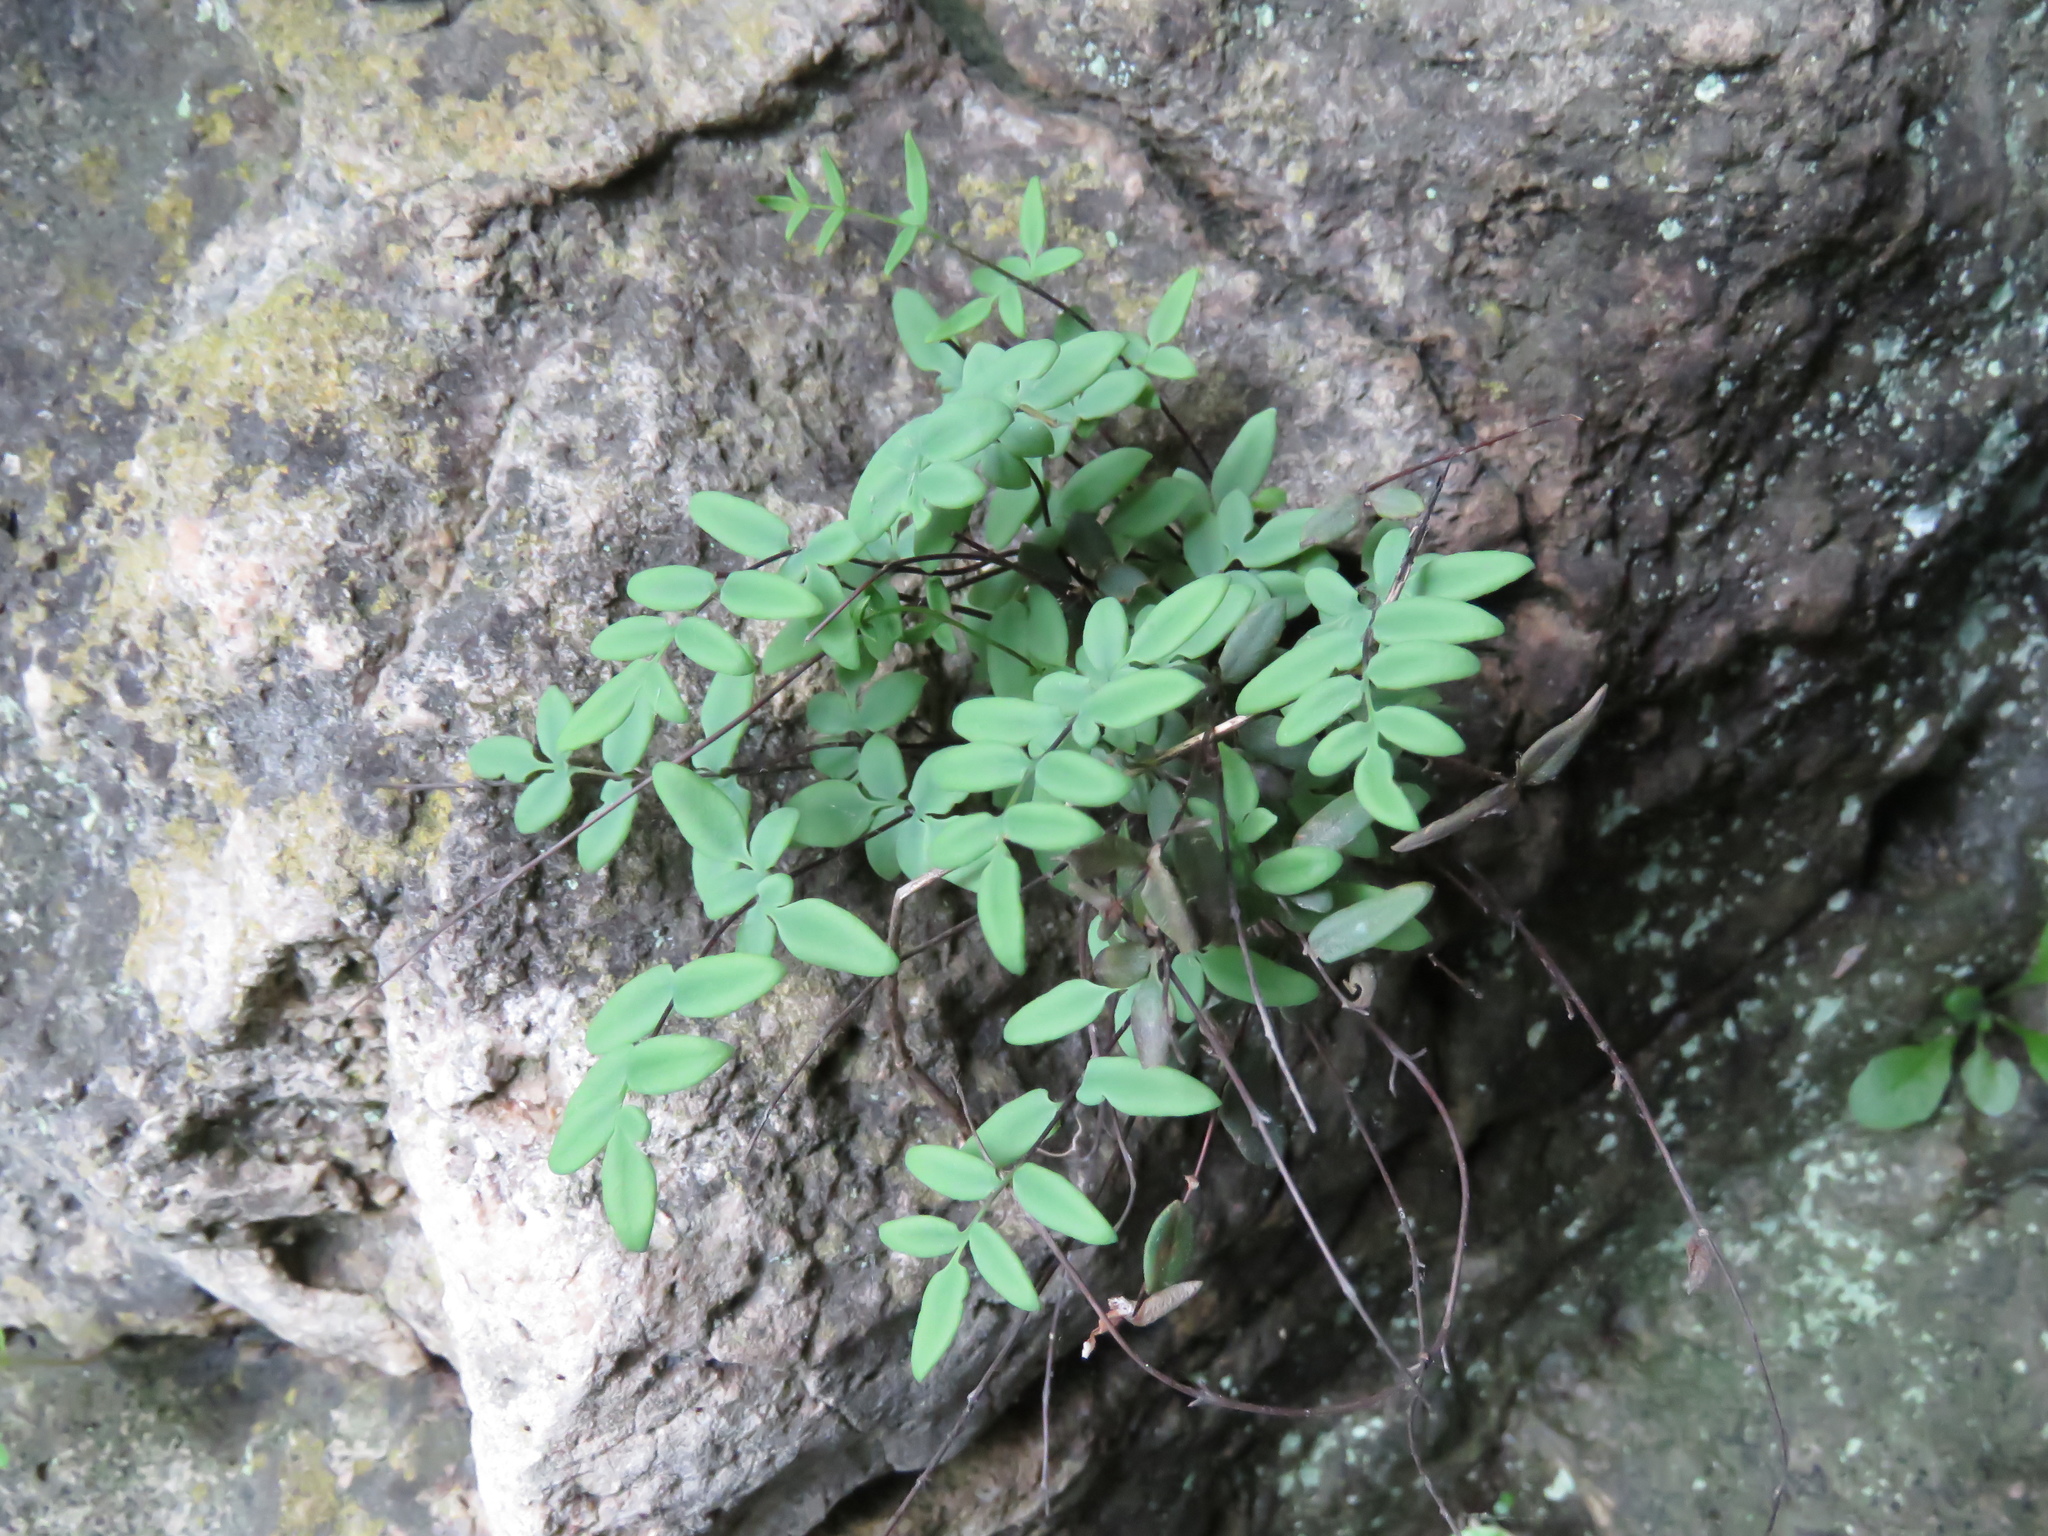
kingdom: Plantae
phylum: Tracheophyta
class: Polypodiopsida
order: Polypodiales
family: Pteridaceae
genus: Pellaea
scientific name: Pellaea glabella
